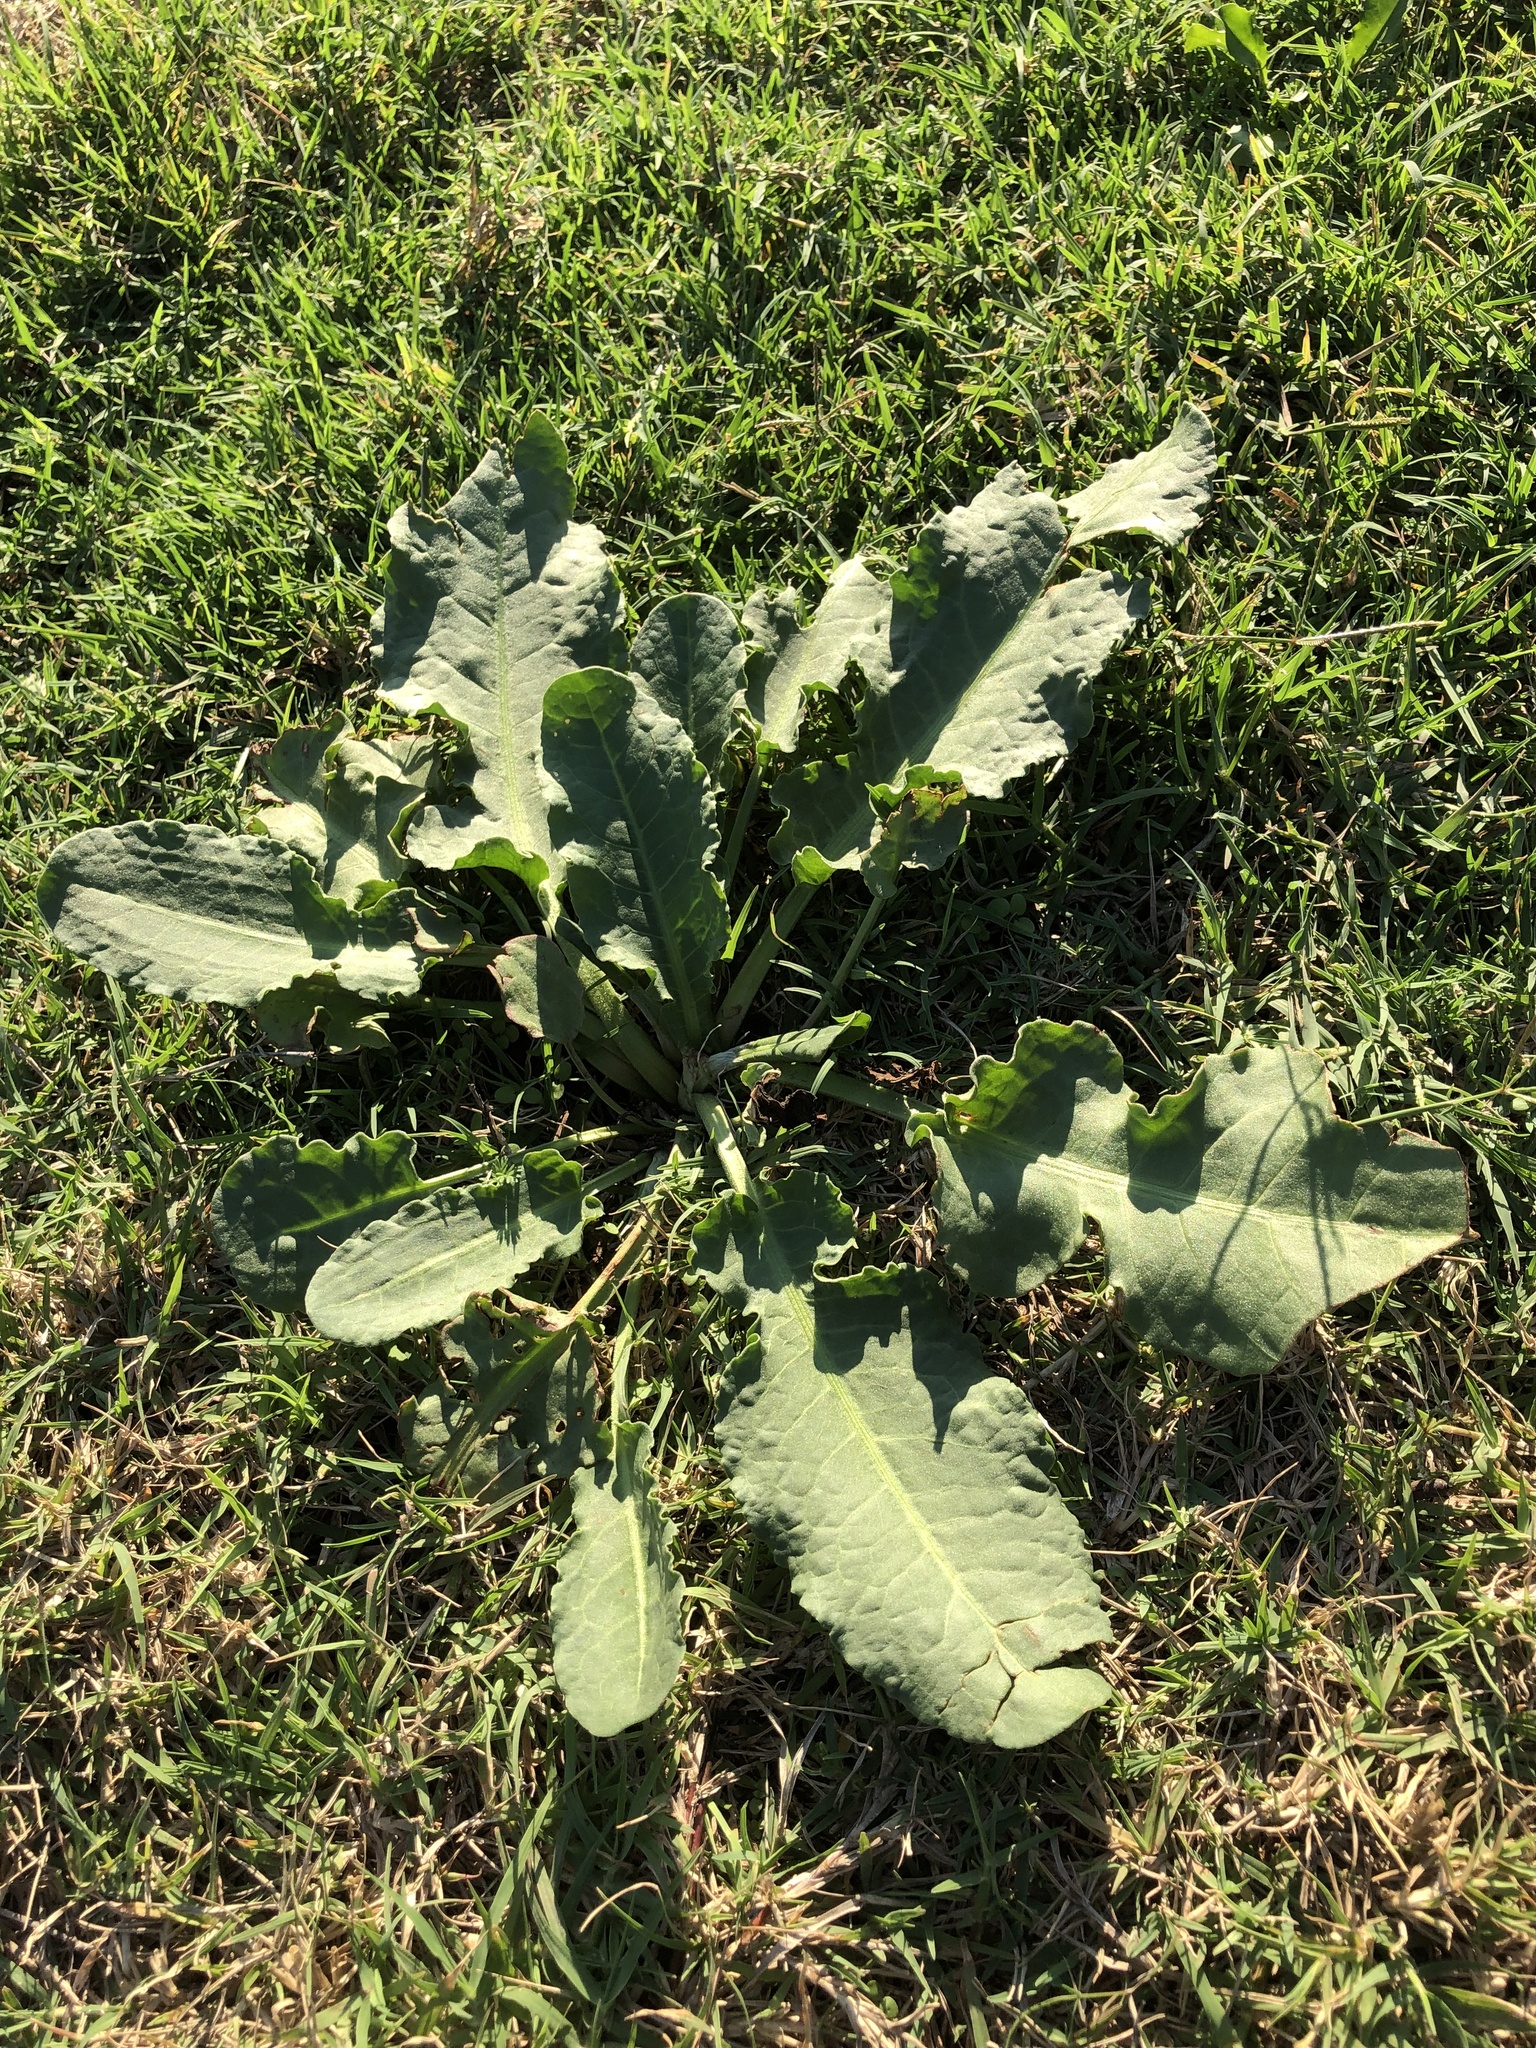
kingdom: Plantae
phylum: Tracheophyta
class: Magnoliopsida
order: Caryophyllales
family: Polygonaceae
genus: Rumex
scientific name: Rumex crispus
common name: Curled dock
